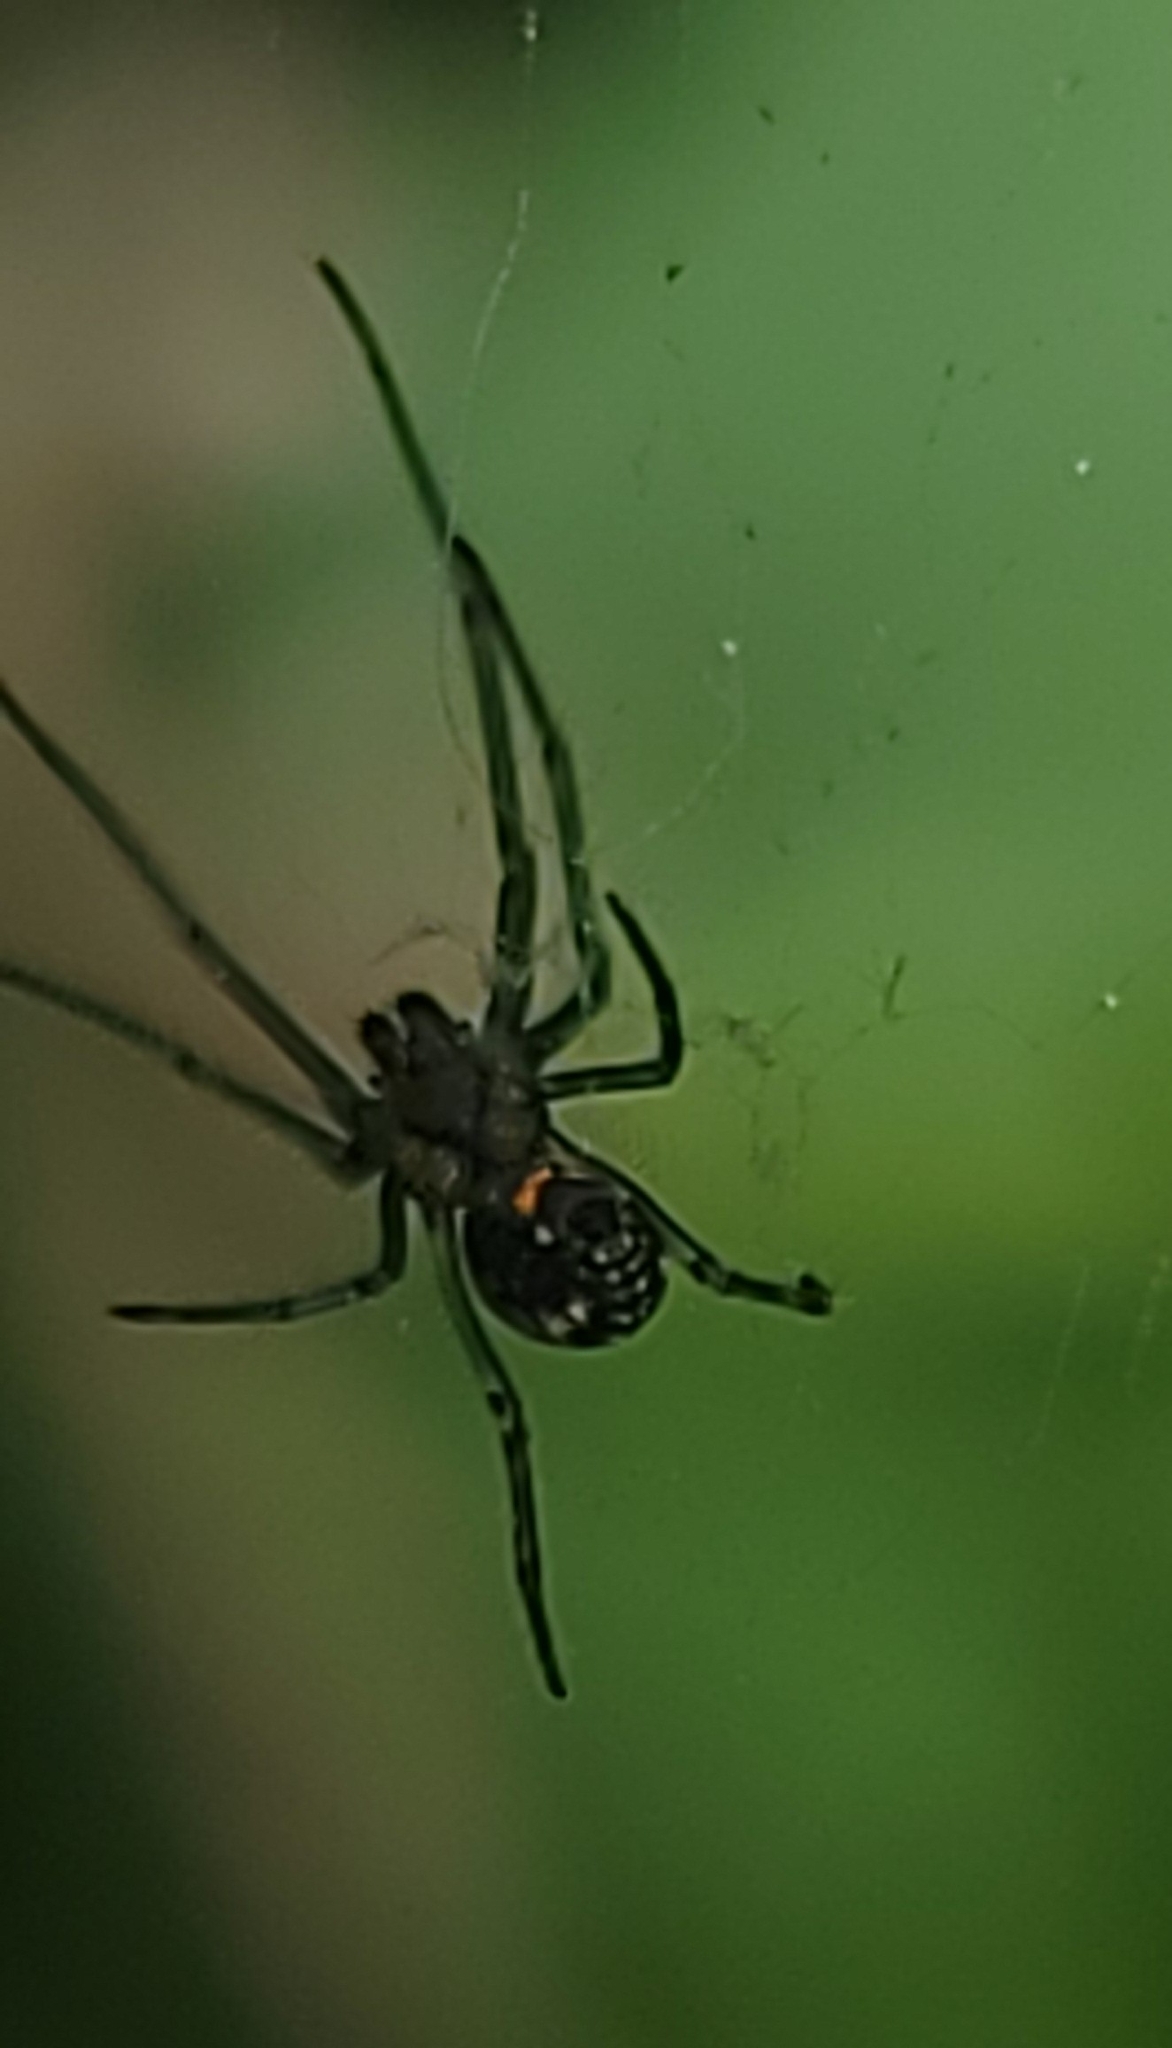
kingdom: Animalia
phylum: Arthropoda
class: Arachnida
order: Araneae
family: Tetragnathidae
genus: Leucauge
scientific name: Leucauge venusta
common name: Longjawed orb weavers
